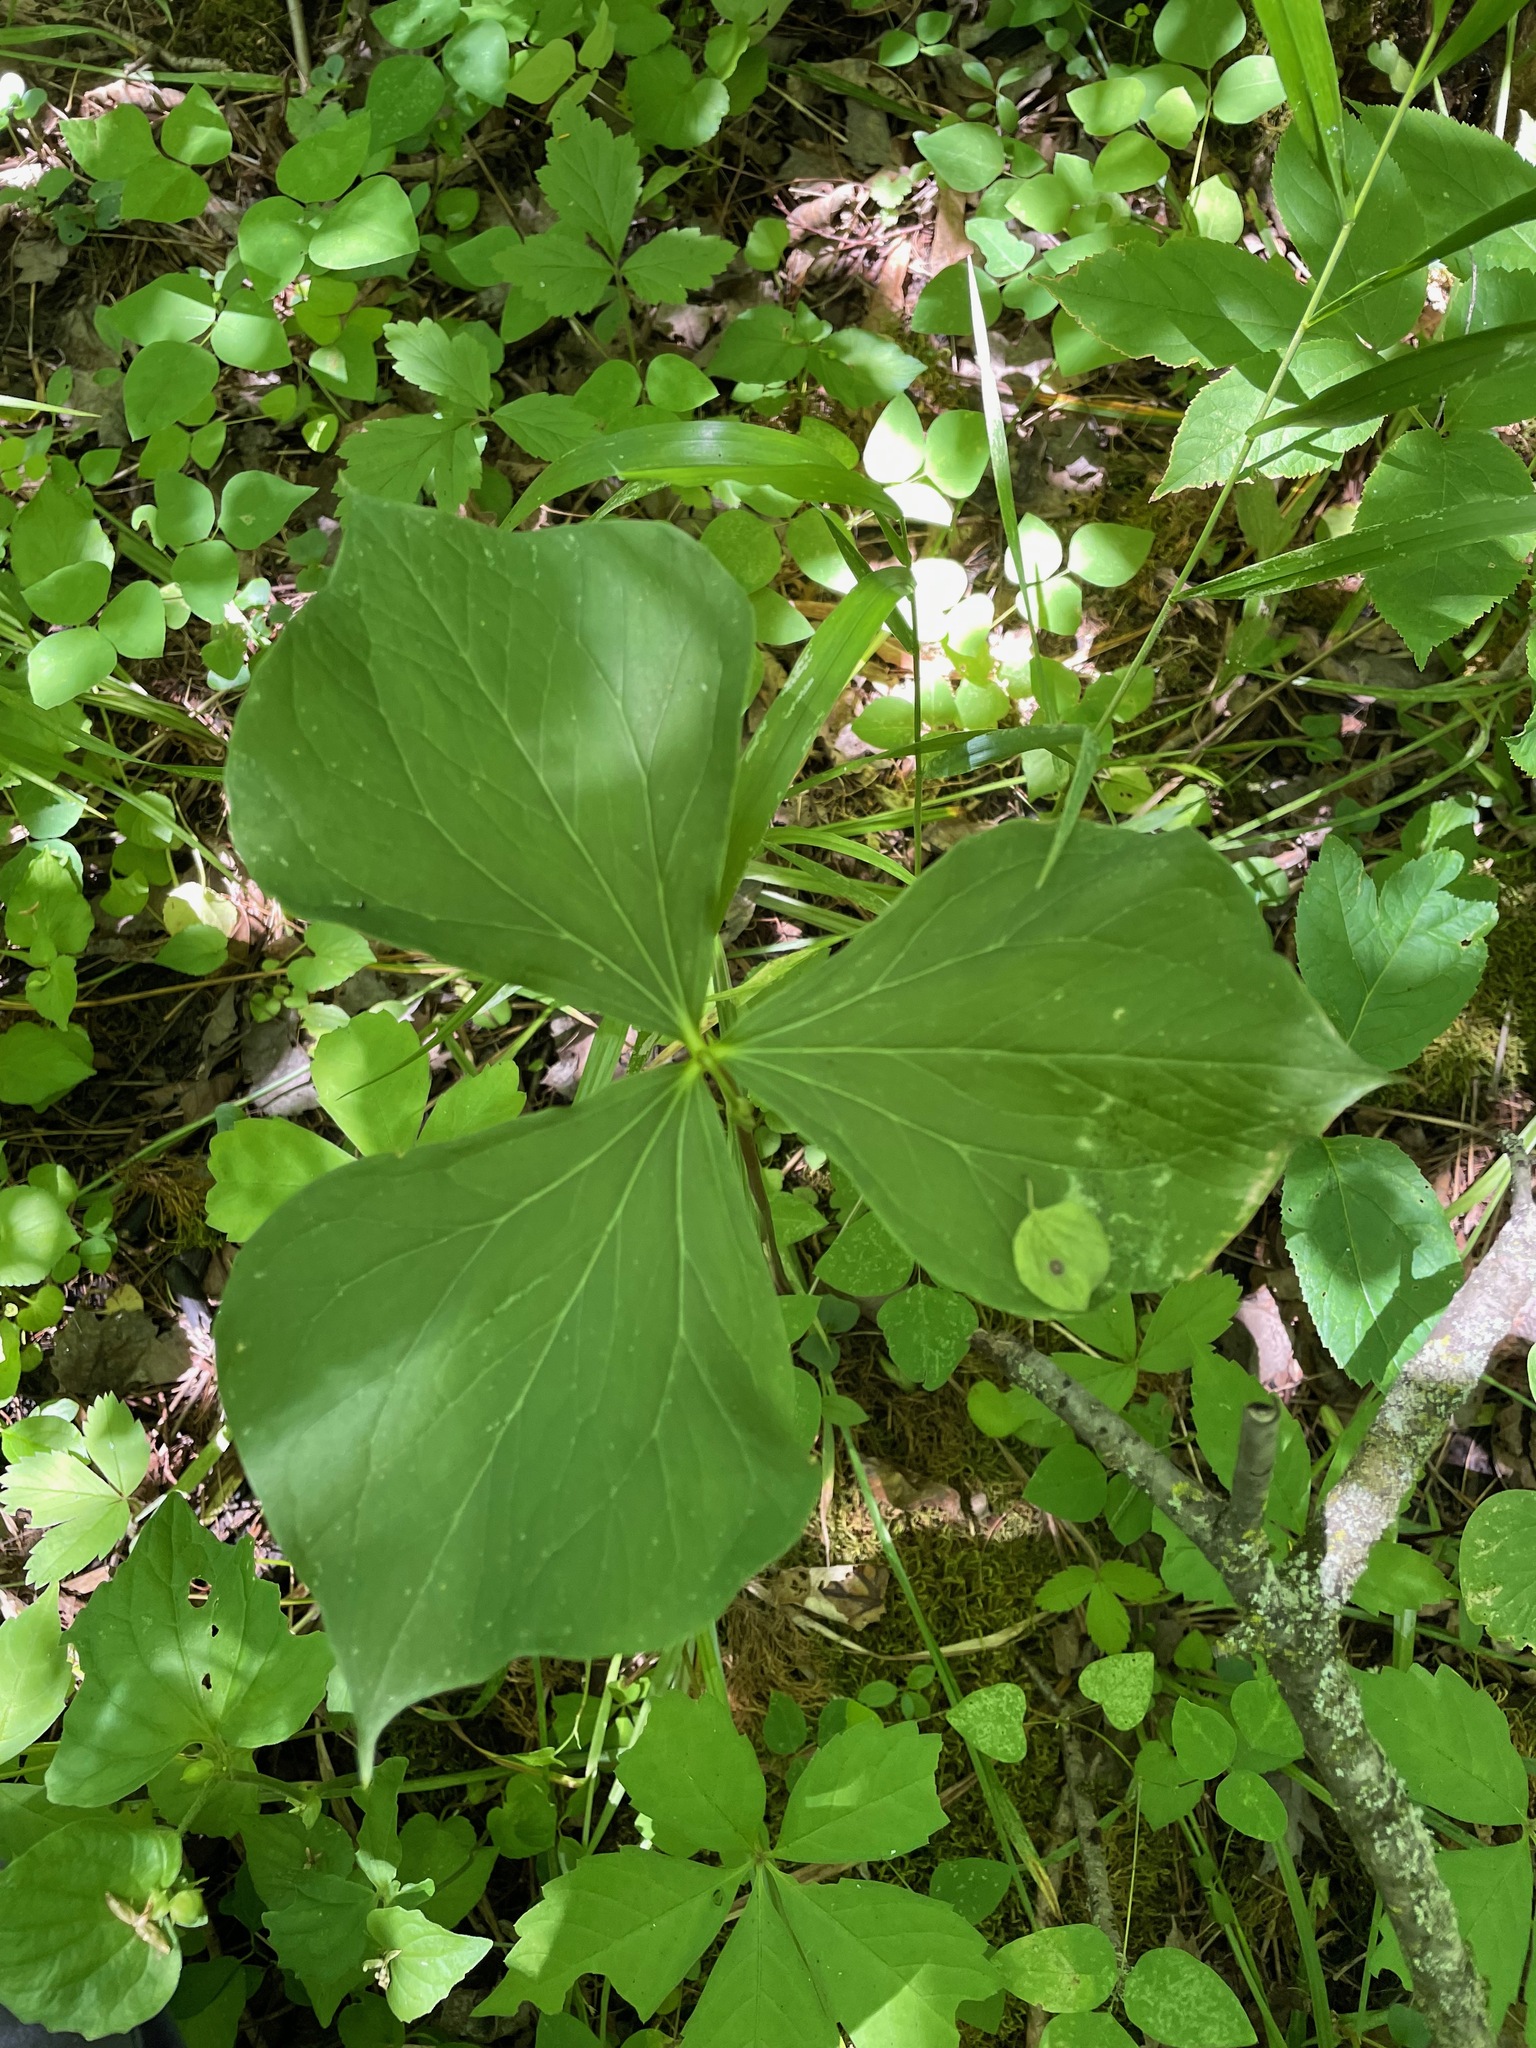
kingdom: Plantae
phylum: Tracheophyta
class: Liliopsida
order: Liliales
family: Melanthiaceae
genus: Trillium
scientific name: Trillium cernuum
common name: Nodding trillium
